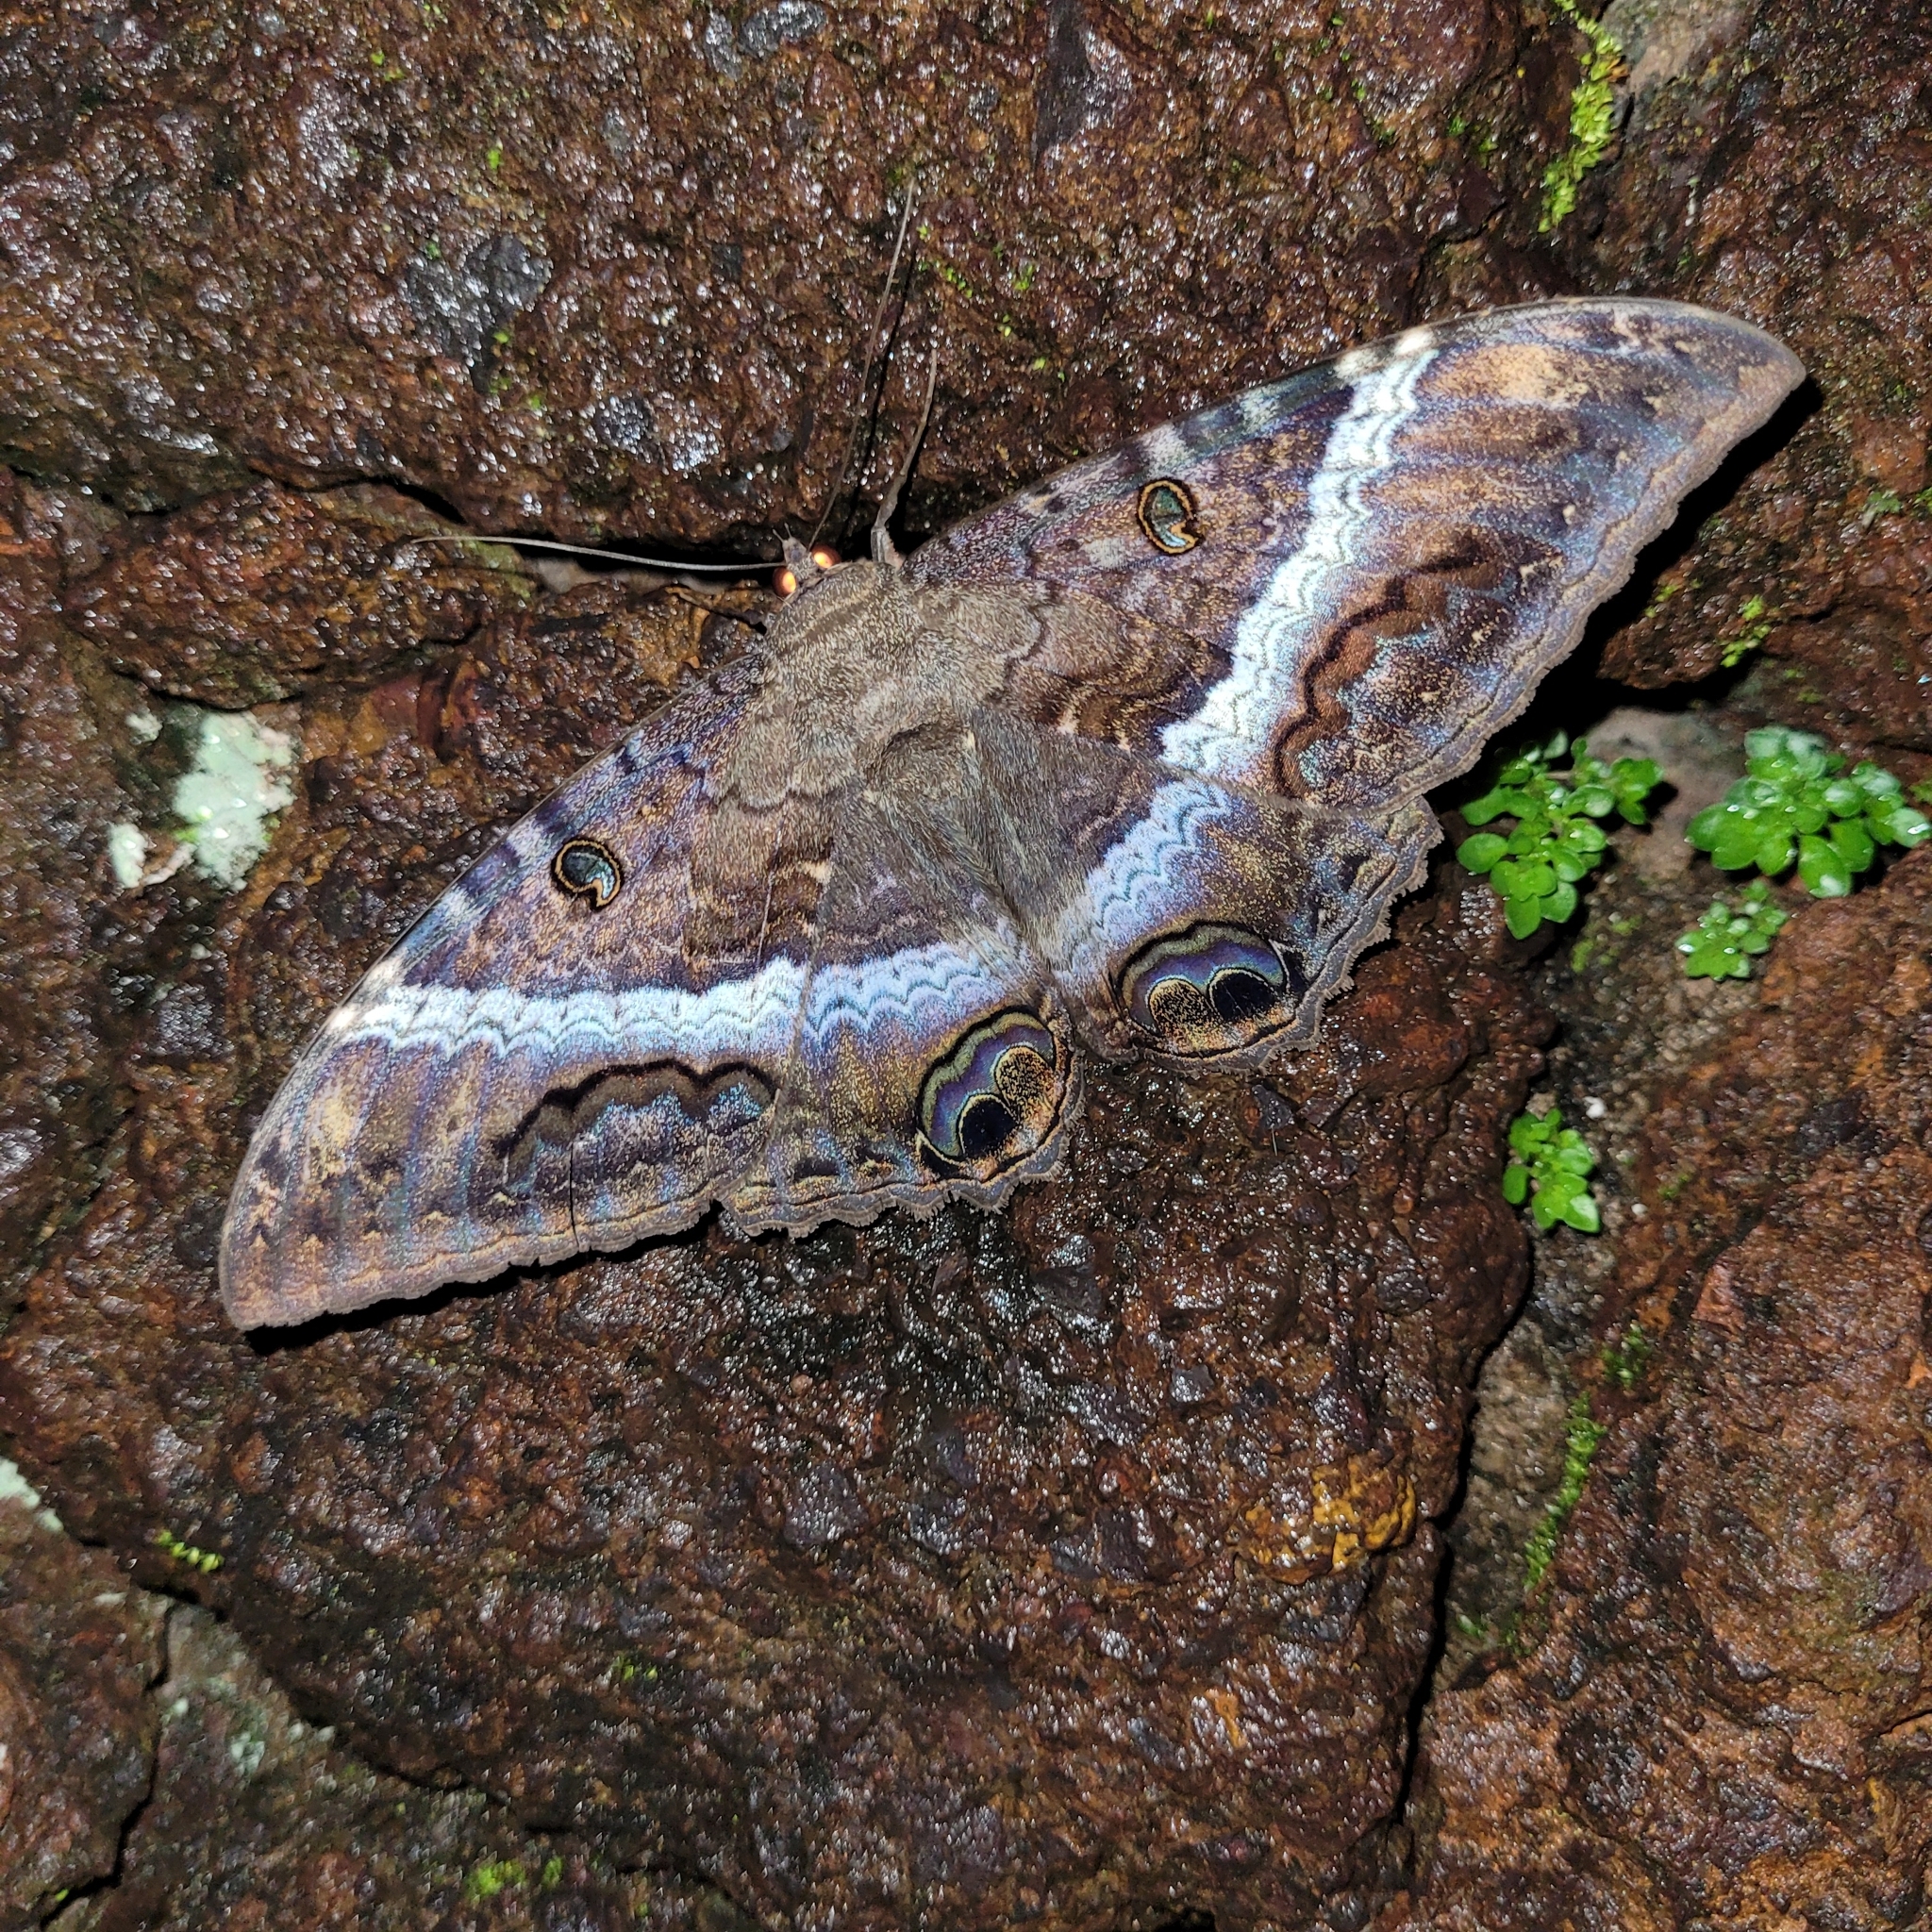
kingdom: Animalia
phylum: Arthropoda
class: Insecta
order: Lepidoptera
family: Erebidae
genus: Ascalapha
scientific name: Ascalapha odorata
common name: Black witch
